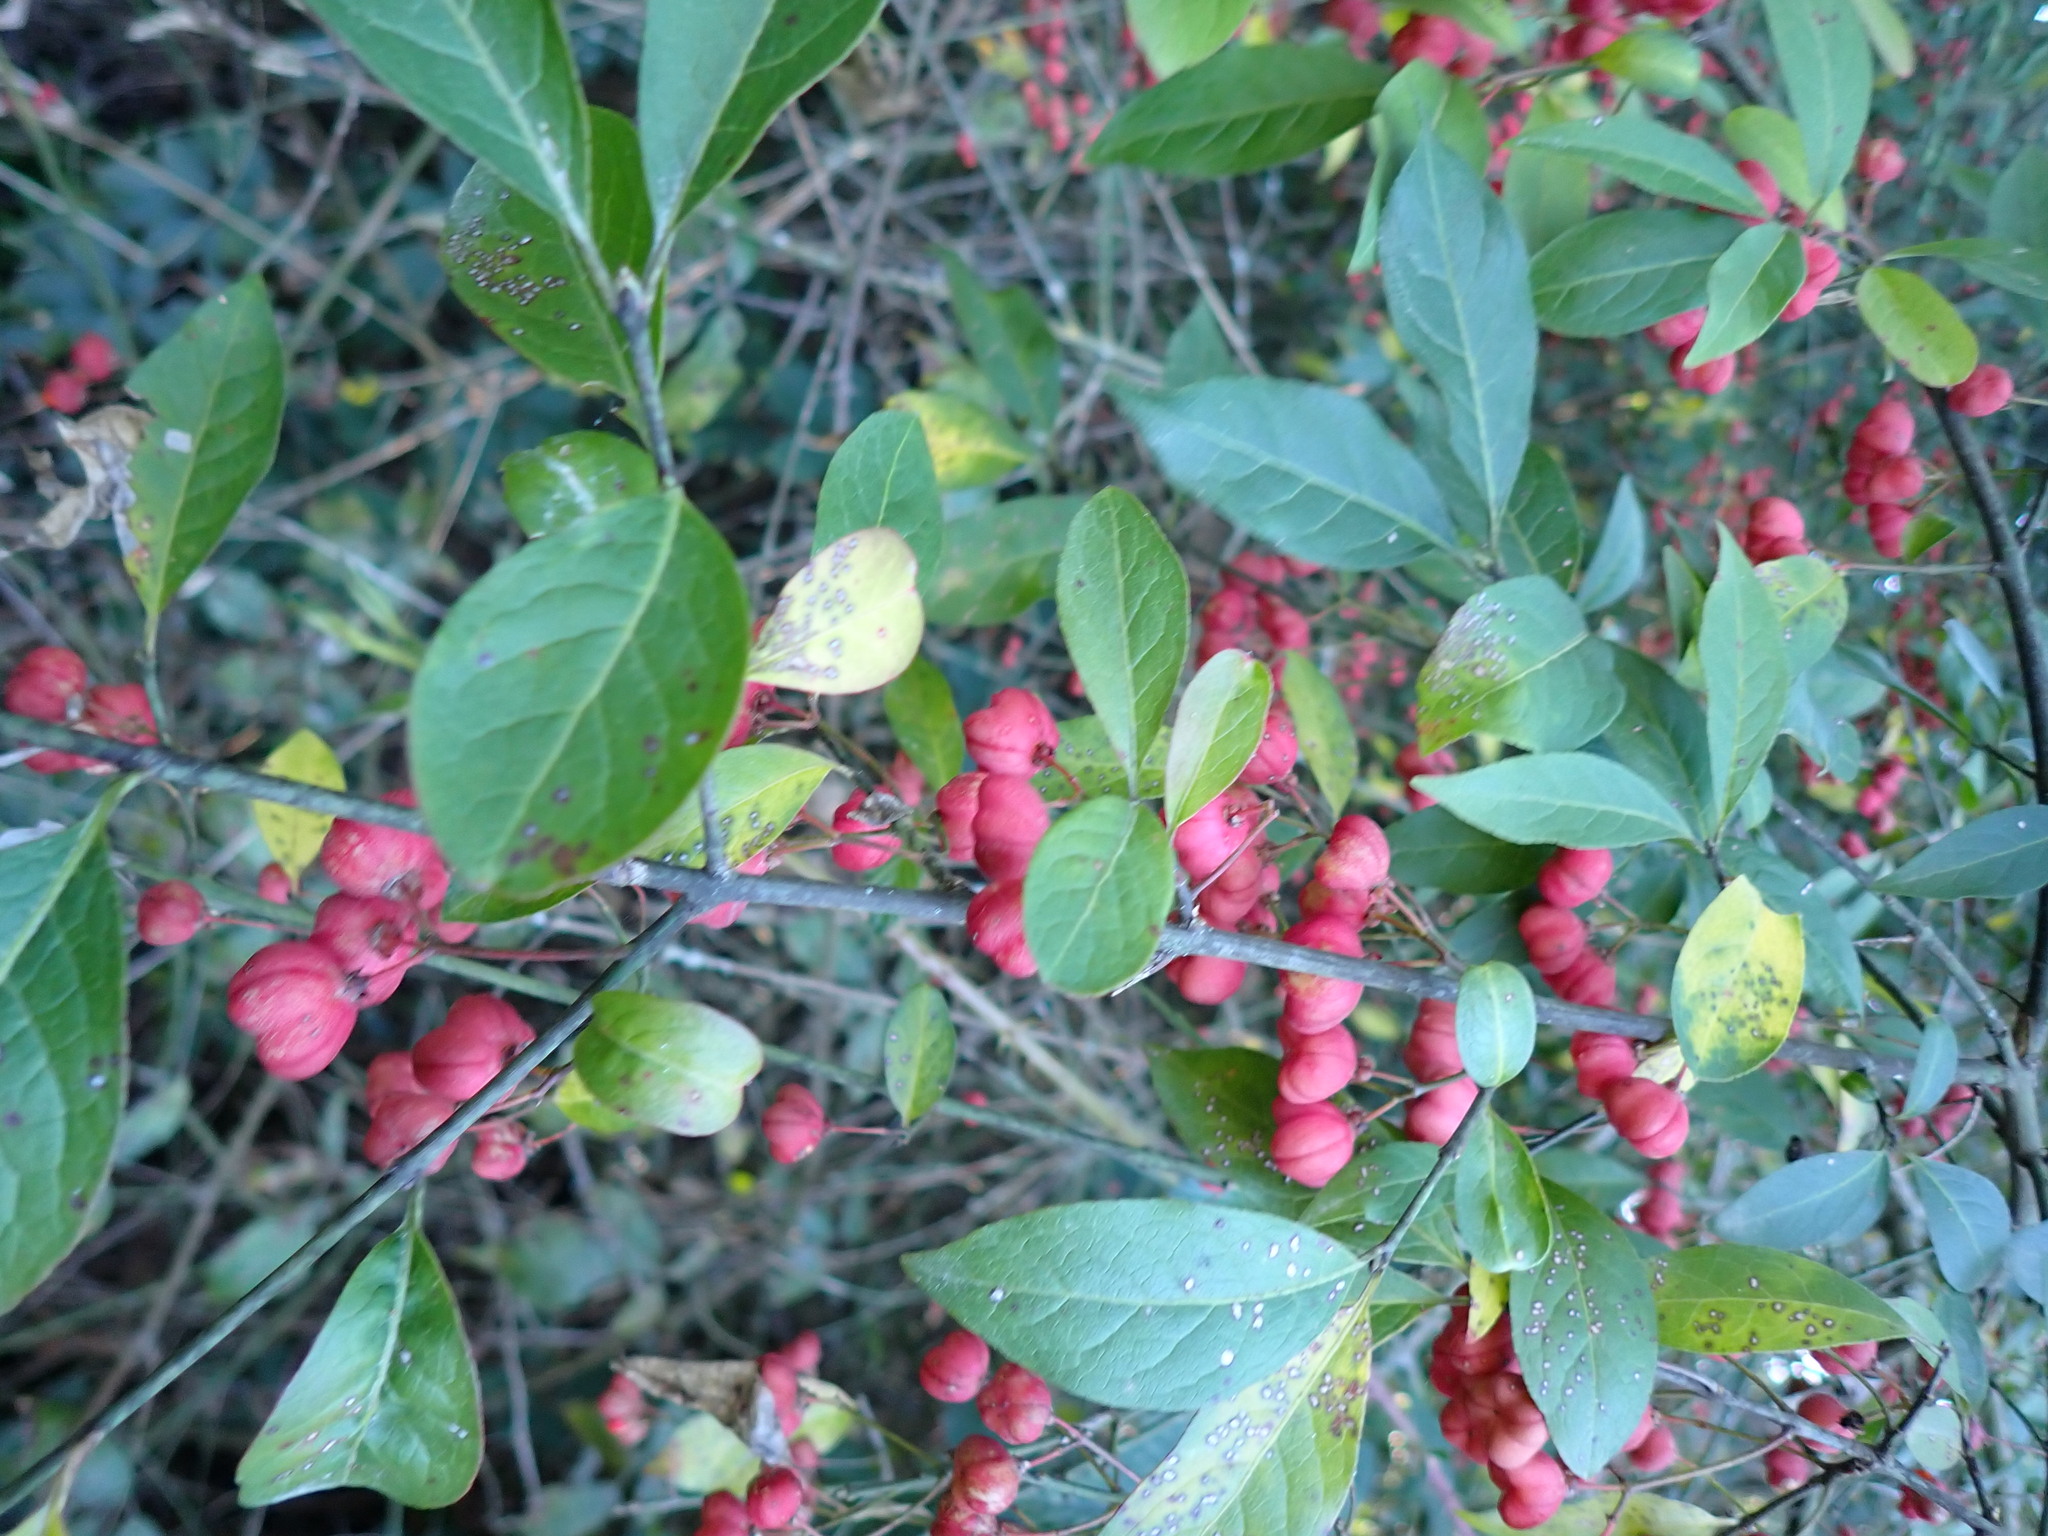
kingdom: Plantae
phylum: Tracheophyta
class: Magnoliopsida
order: Celastrales
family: Celastraceae
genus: Euonymus
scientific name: Euonymus europaeus
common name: Spindle
